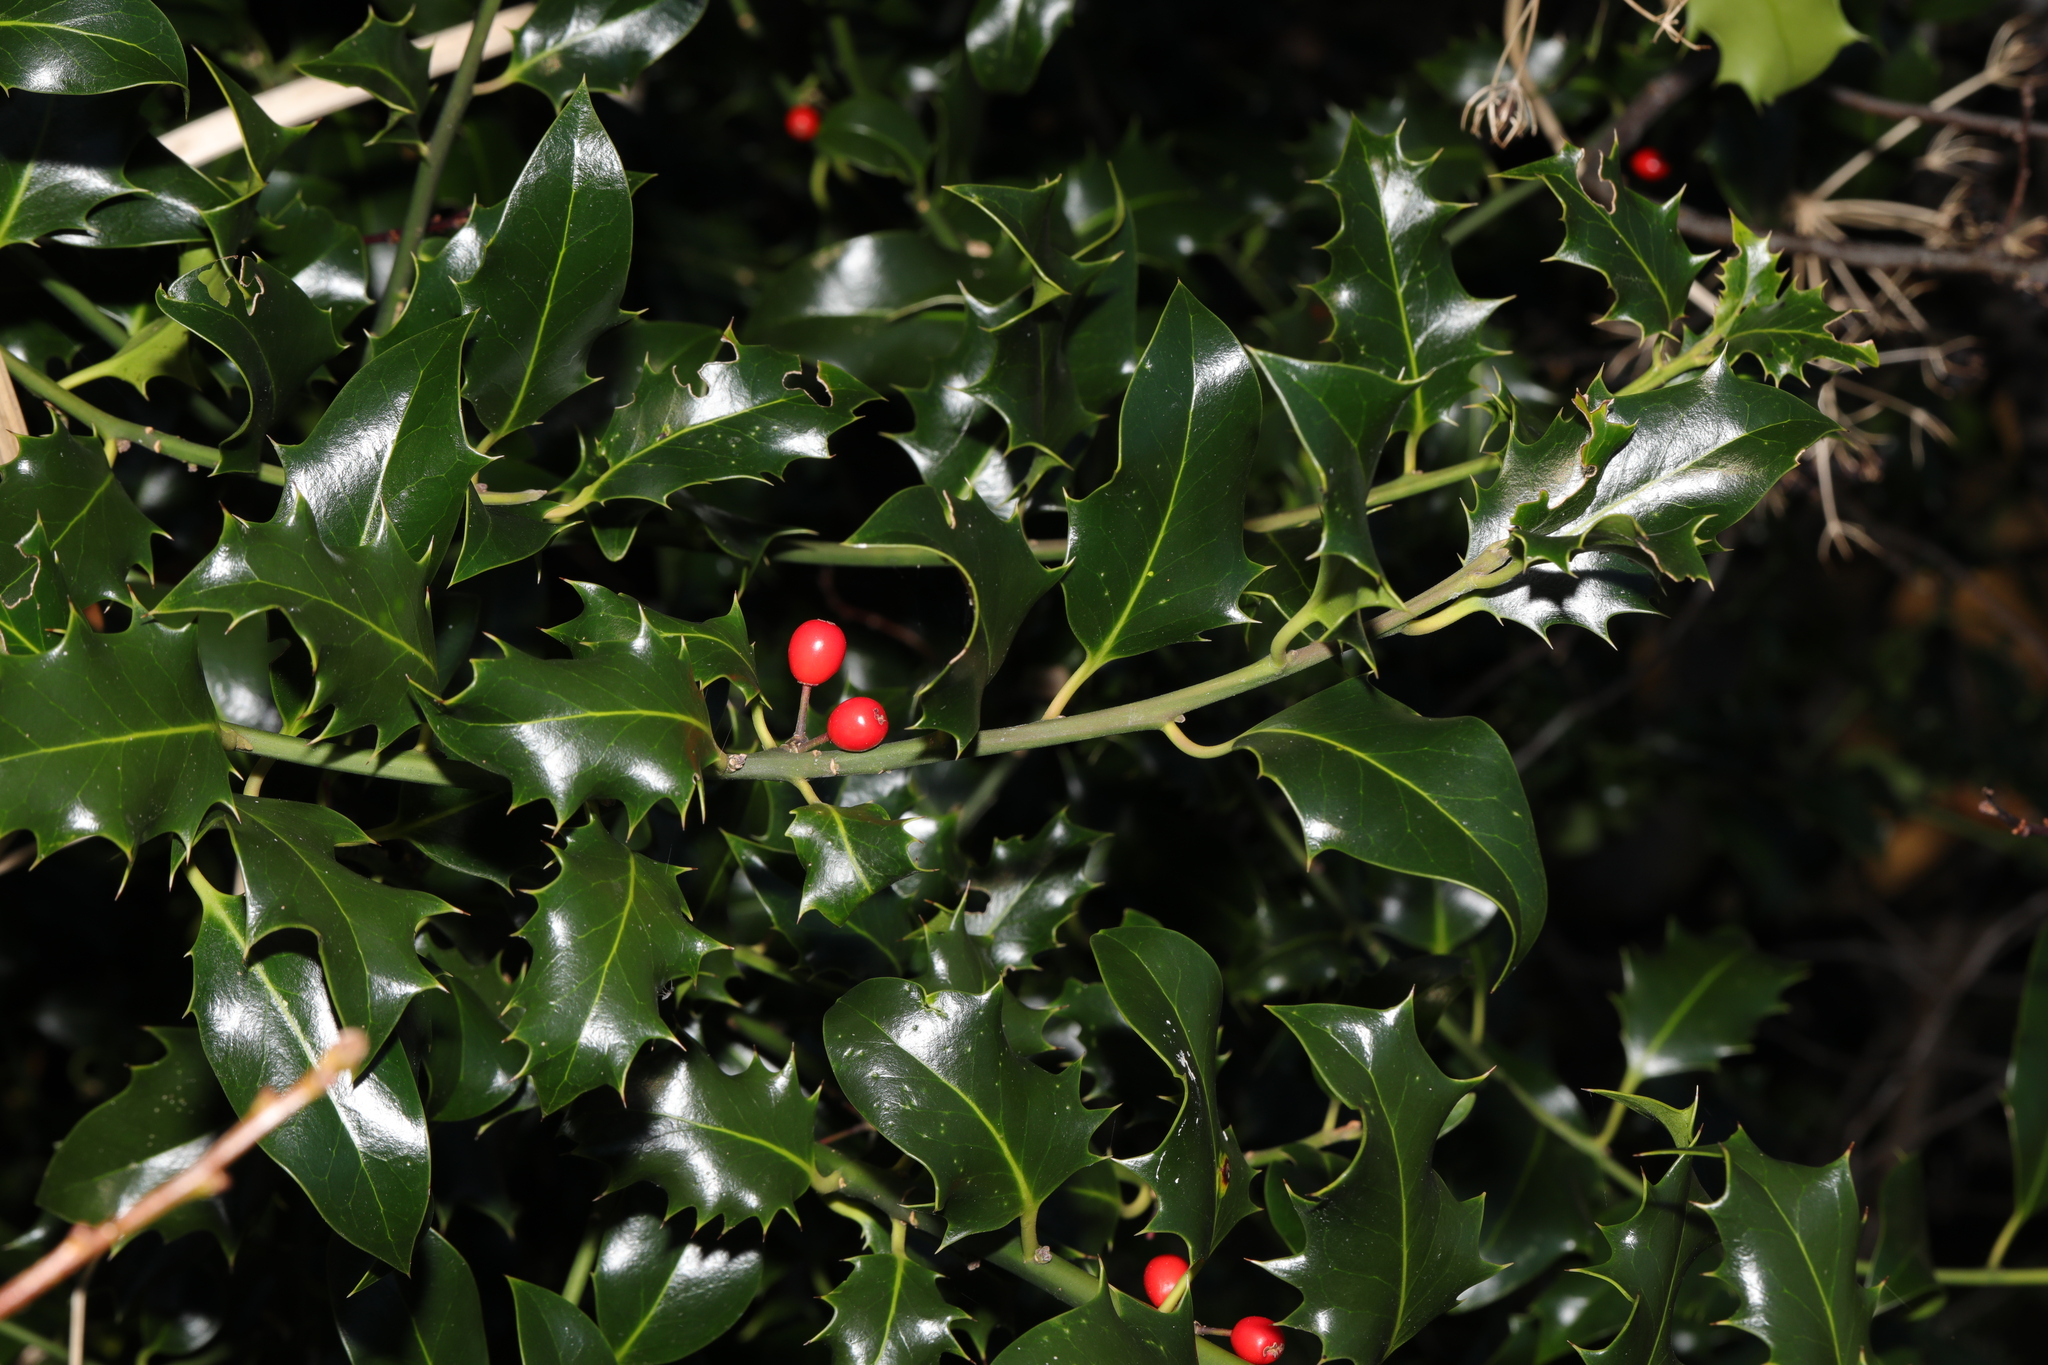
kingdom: Plantae
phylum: Tracheophyta
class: Magnoliopsida
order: Aquifoliales
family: Aquifoliaceae
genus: Ilex
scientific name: Ilex aquifolium
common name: English holly
